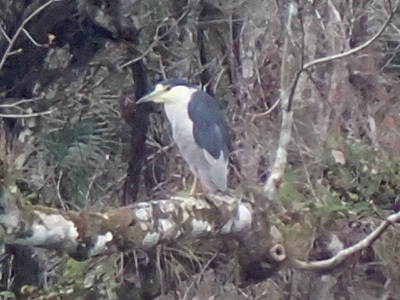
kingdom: Animalia
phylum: Chordata
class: Aves
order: Pelecaniformes
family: Ardeidae
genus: Nycticorax
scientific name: Nycticorax nycticorax
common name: Black-crowned night heron
